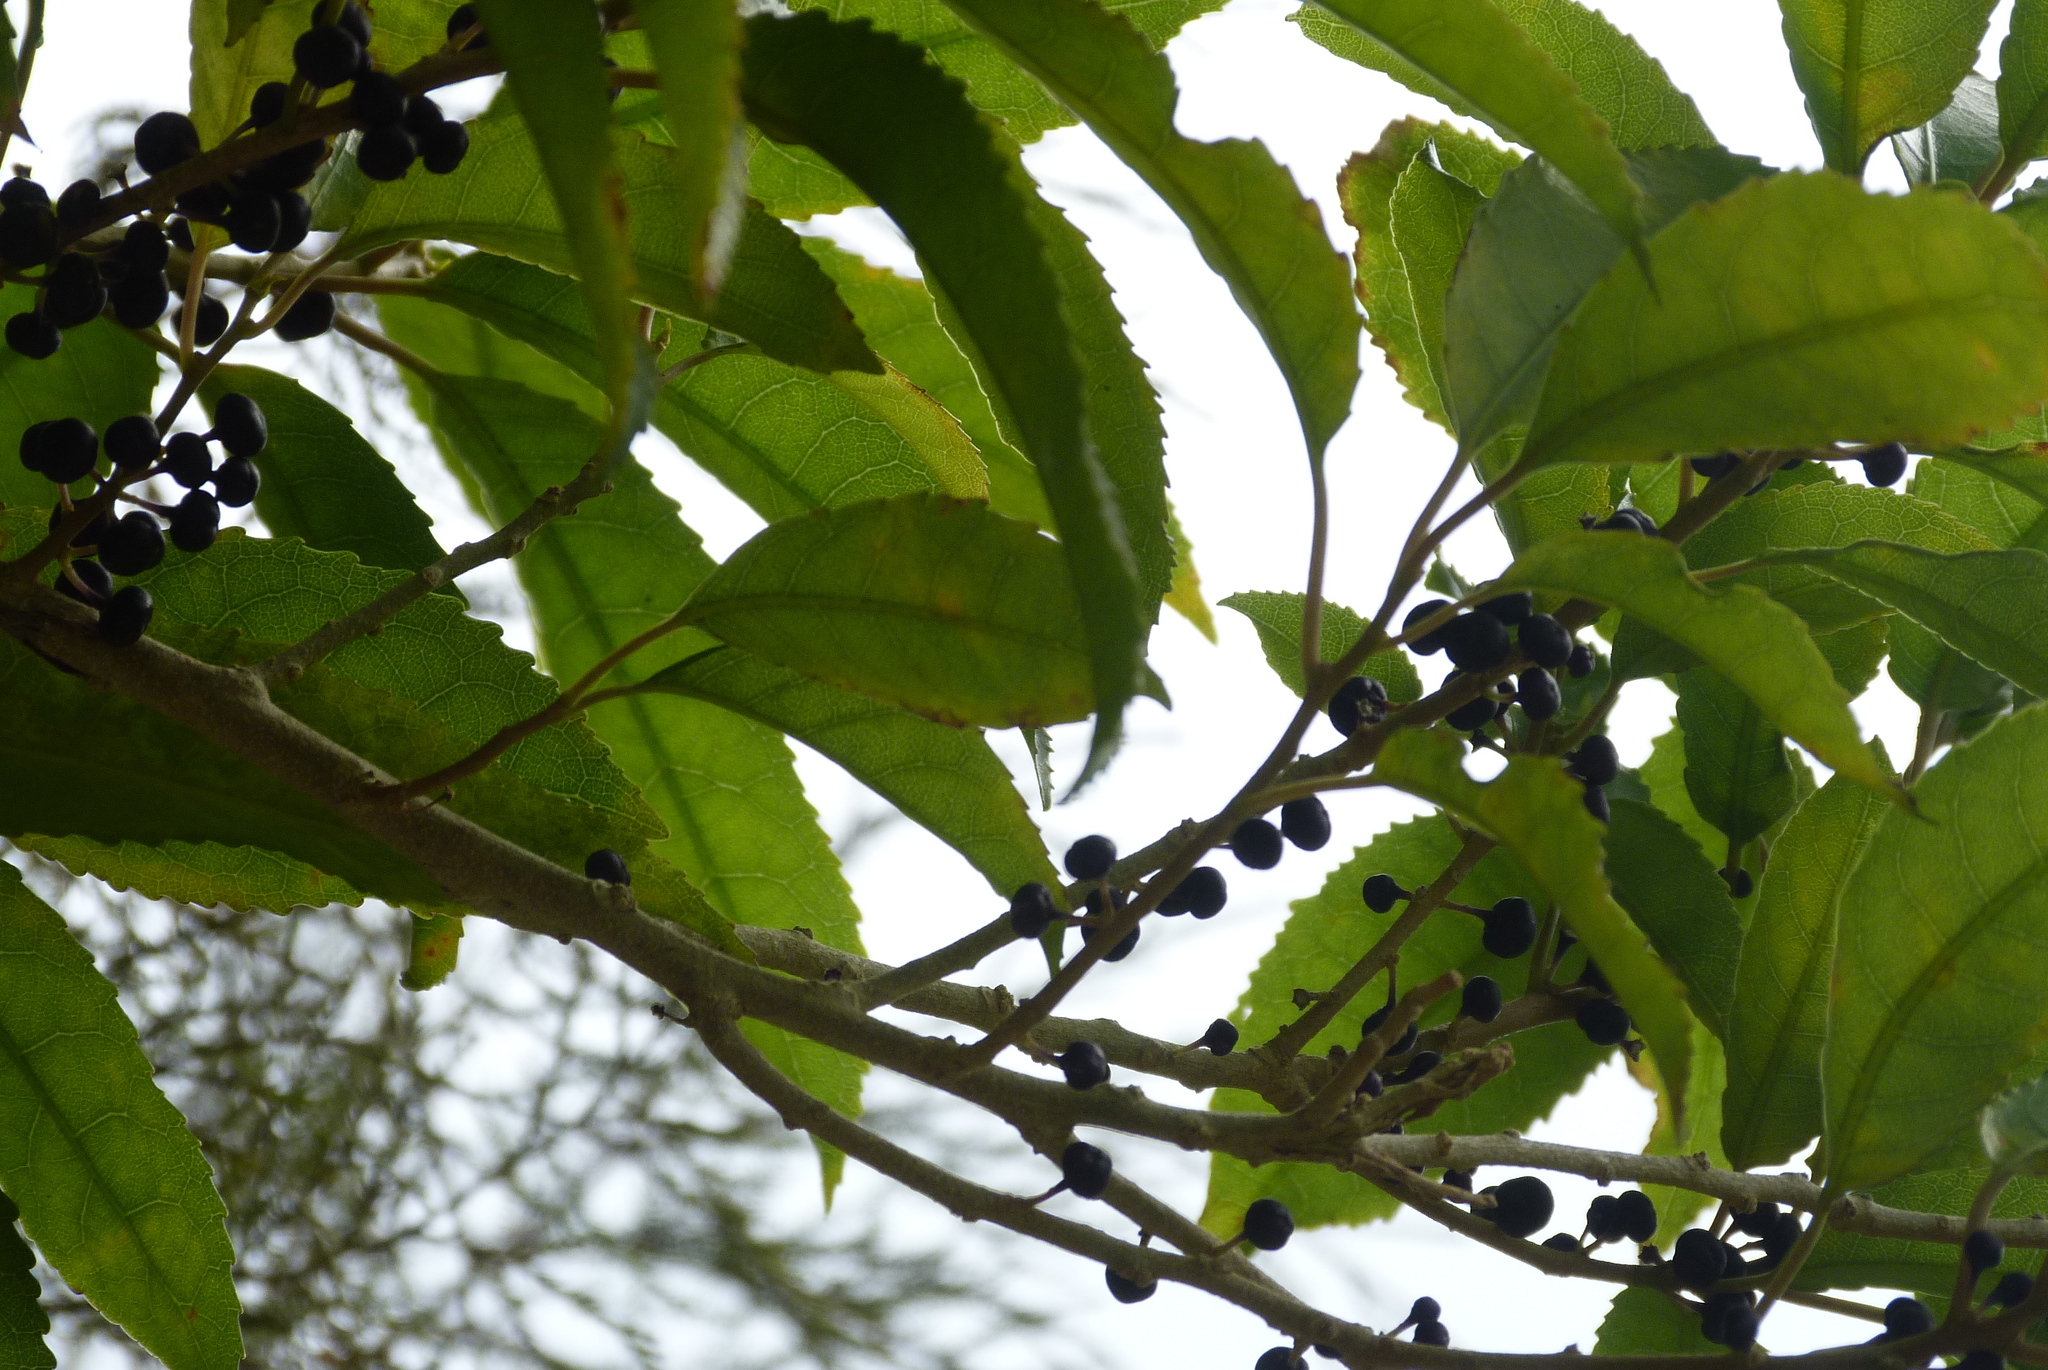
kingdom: Plantae
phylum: Tracheophyta
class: Magnoliopsida
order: Malpighiales
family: Violaceae
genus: Melicytus
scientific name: Melicytus ramiflorus
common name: Mahoe
